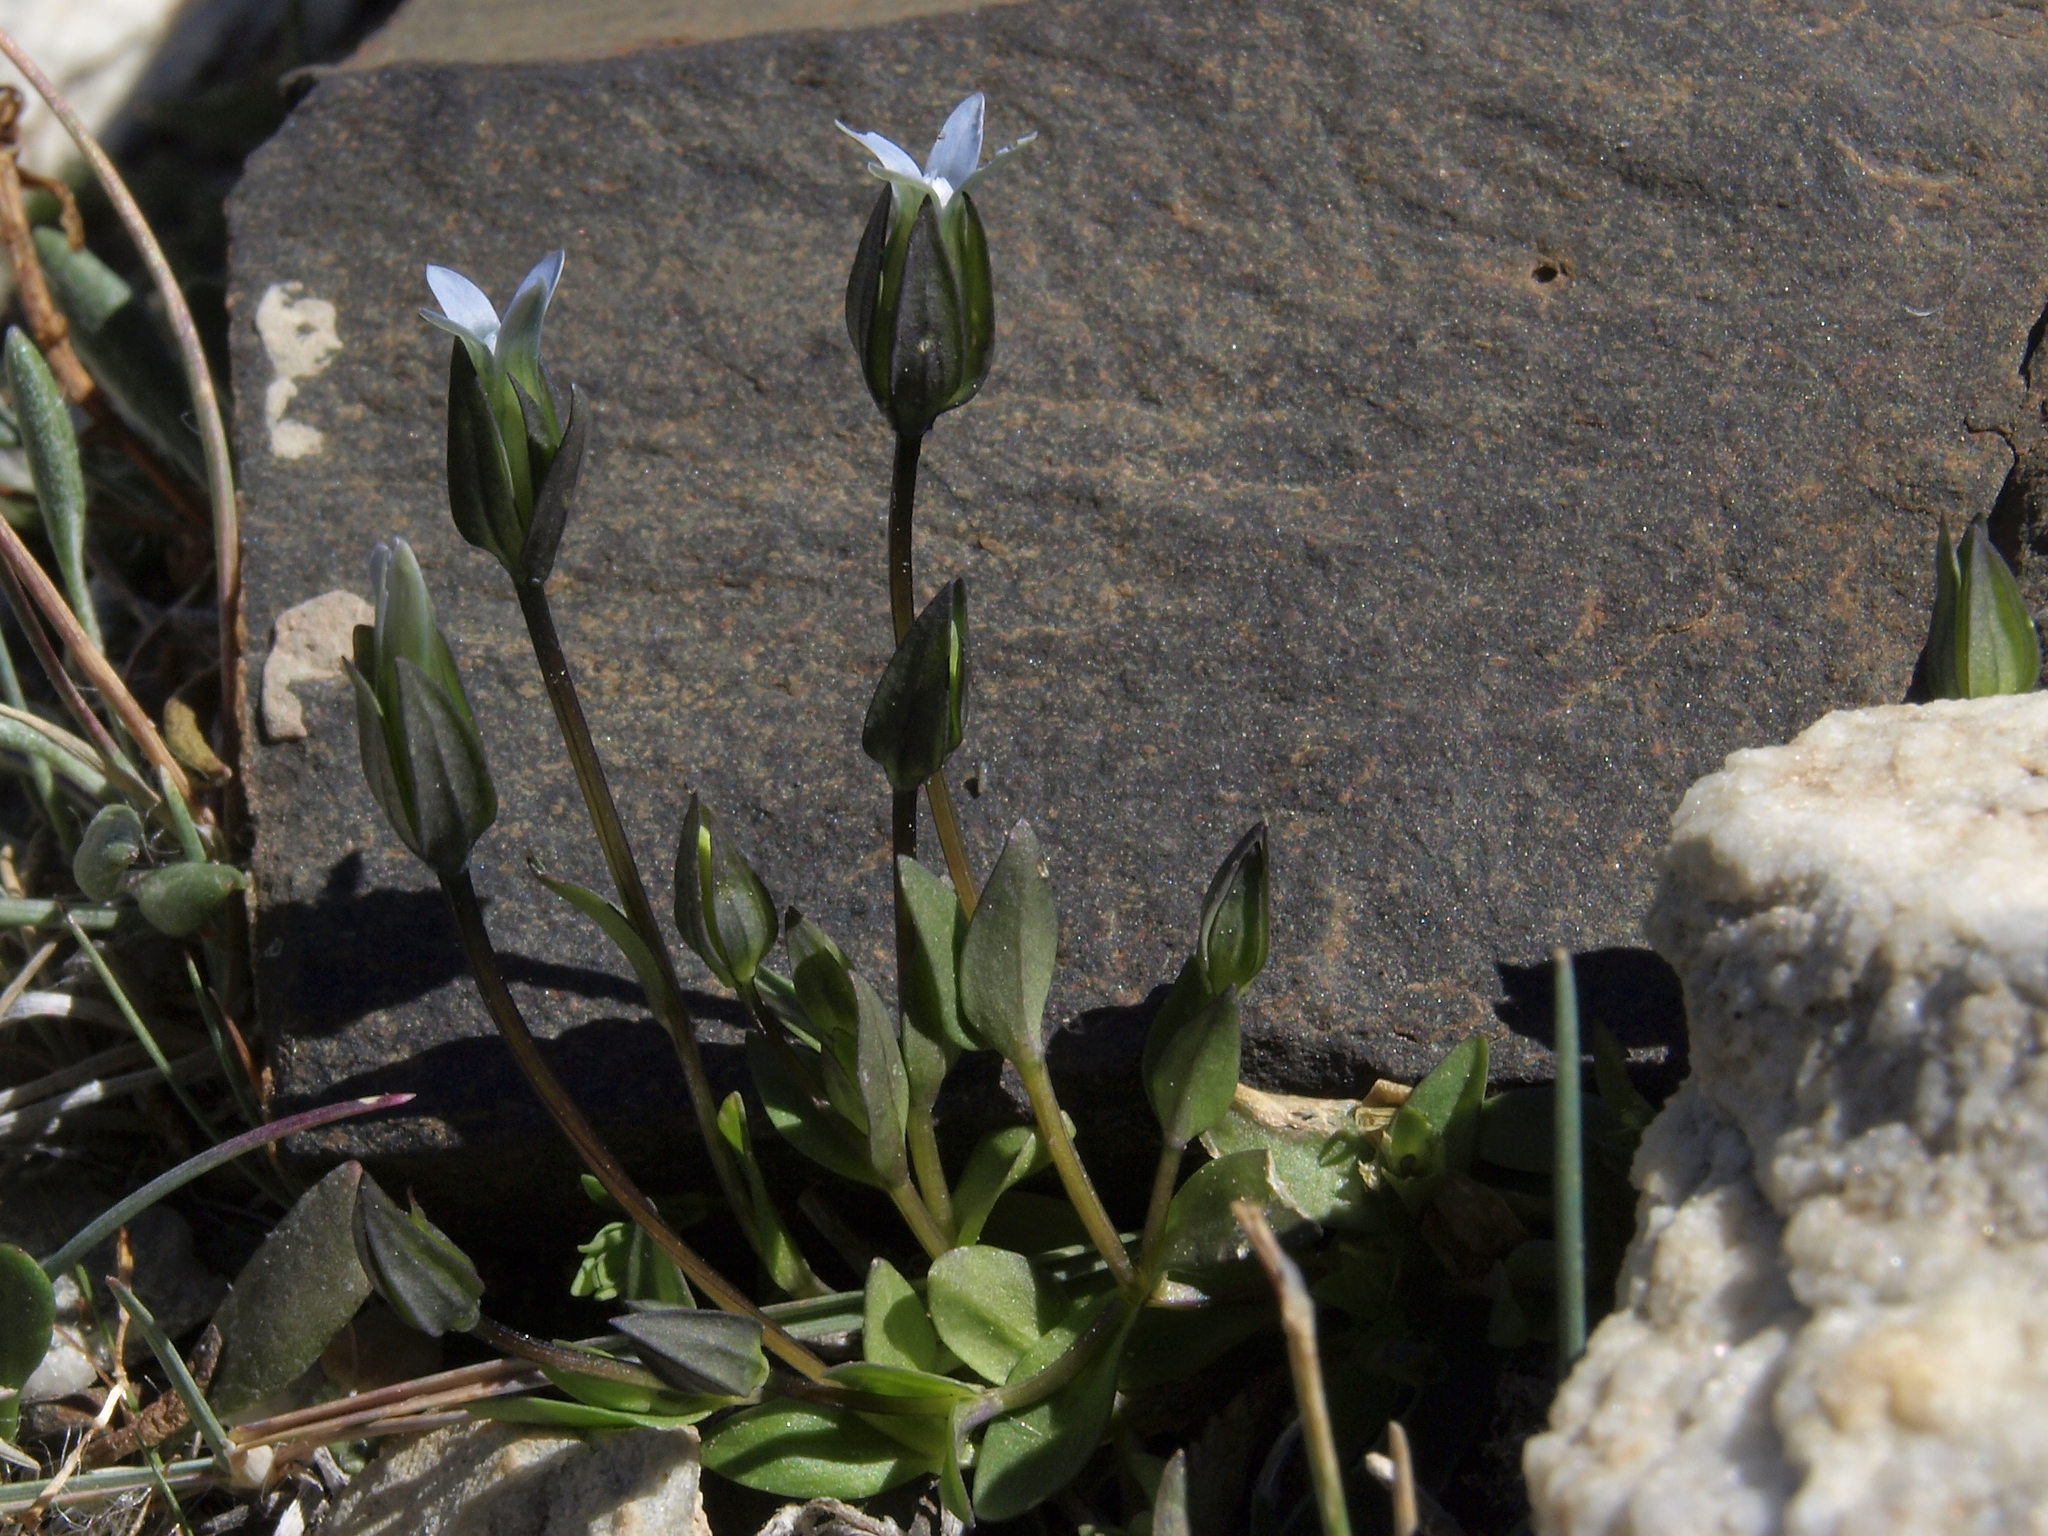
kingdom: Plantae
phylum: Tracheophyta
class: Magnoliopsida
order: Gentianales
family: Gentianaceae
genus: Comastoma
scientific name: Comastoma tenellum
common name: Dane's dwarf gentian
